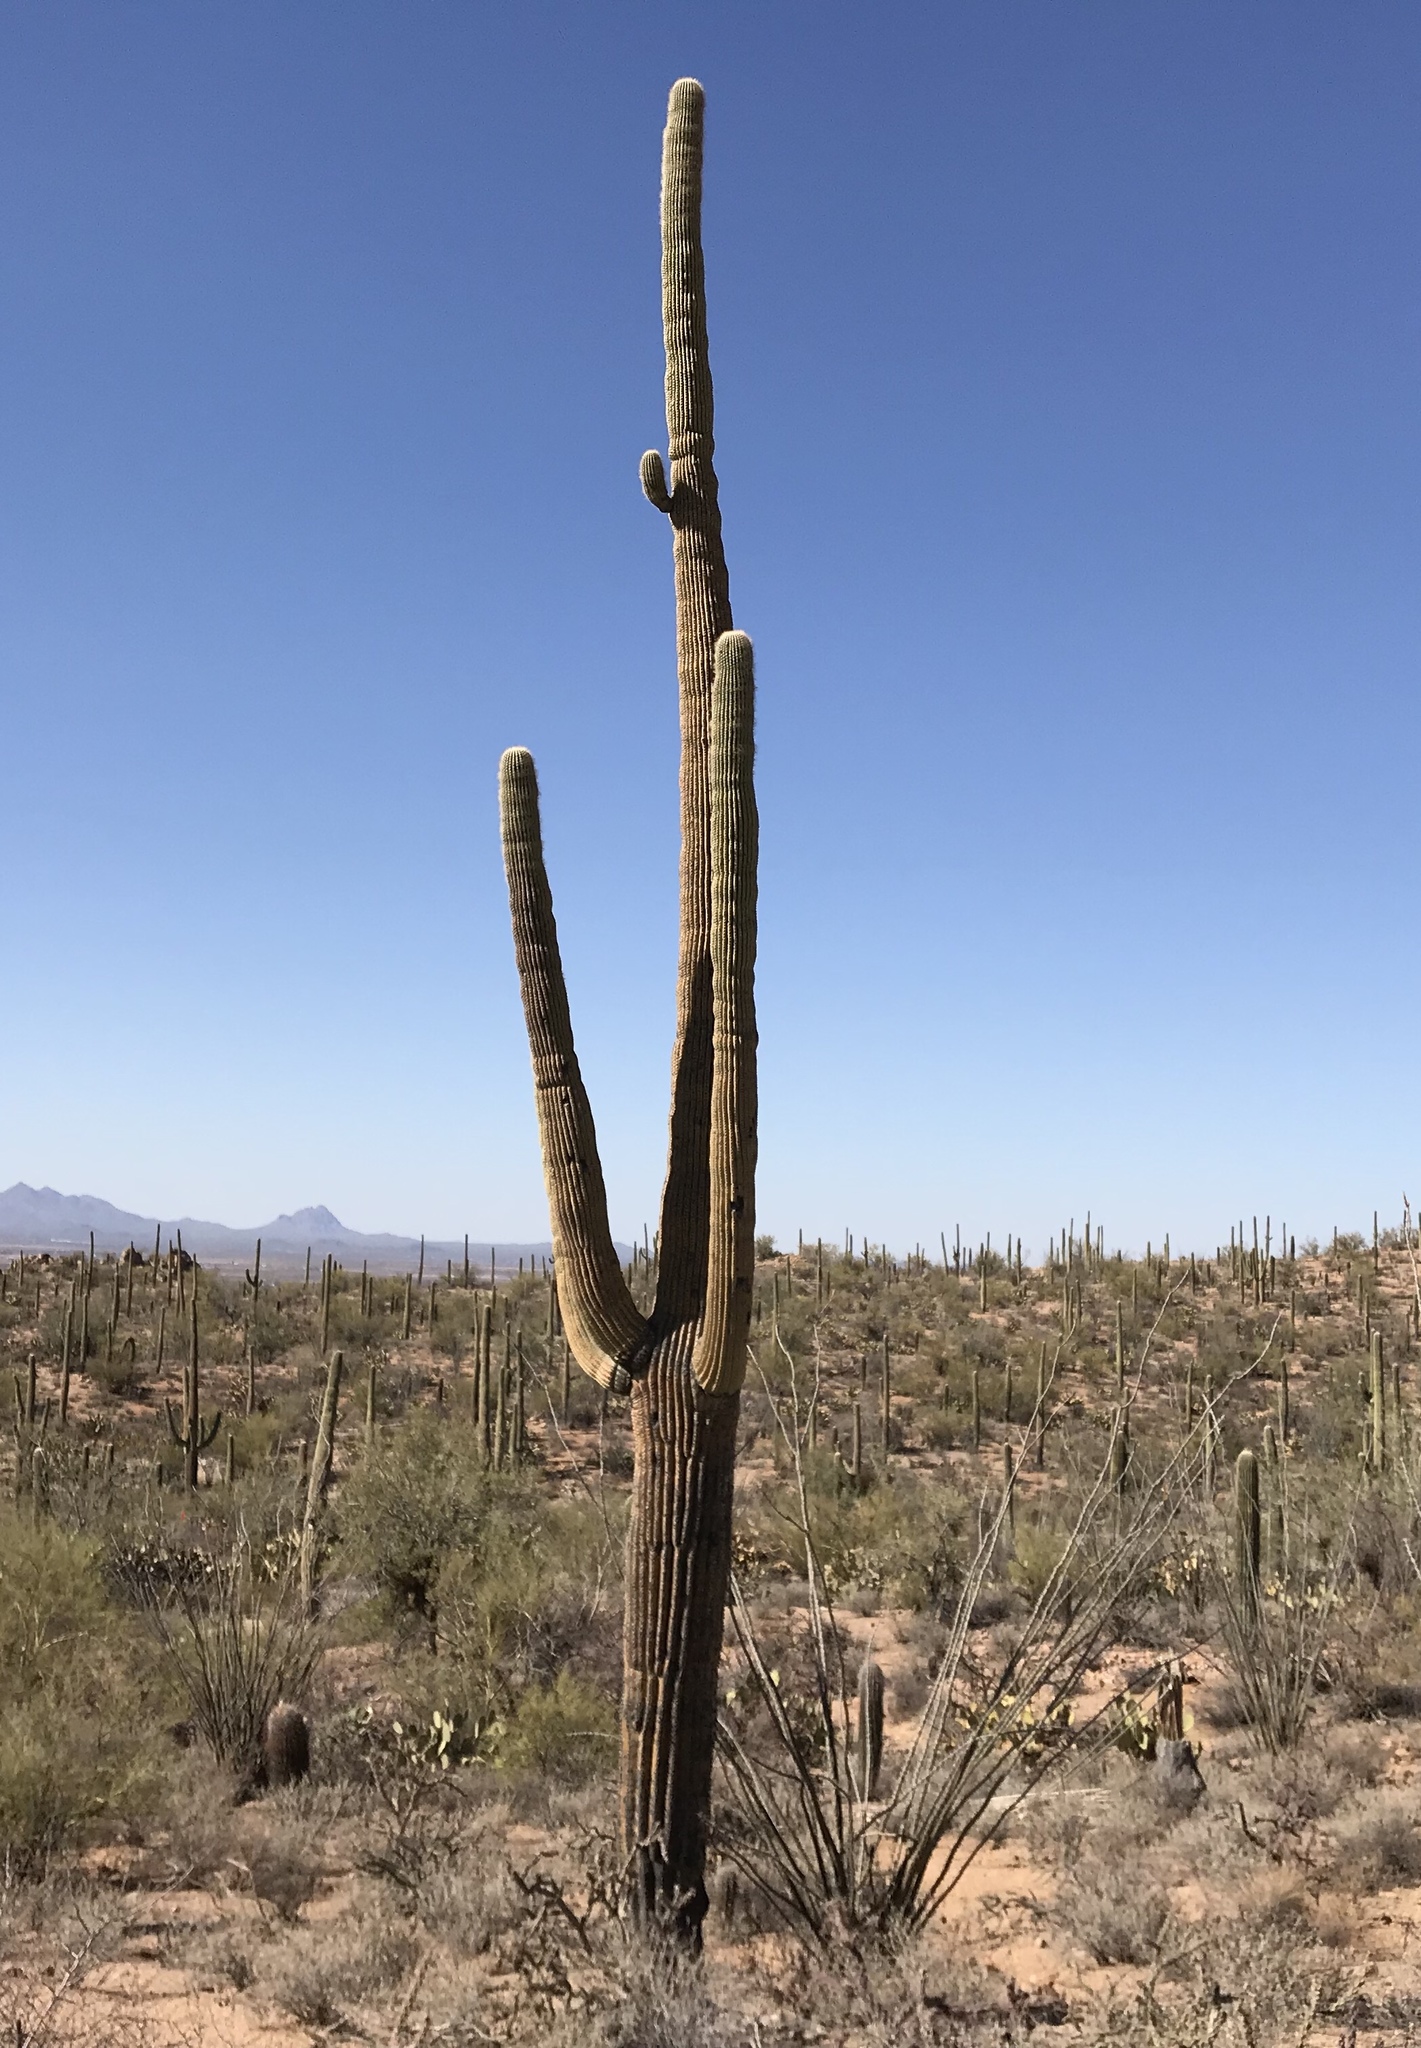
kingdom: Plantae
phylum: Tracheophyta
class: Magnoliopsida
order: Caryophyllales
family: Cactaceae
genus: Carnegiea
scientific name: Carnegiea gigantea
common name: Saguaro
